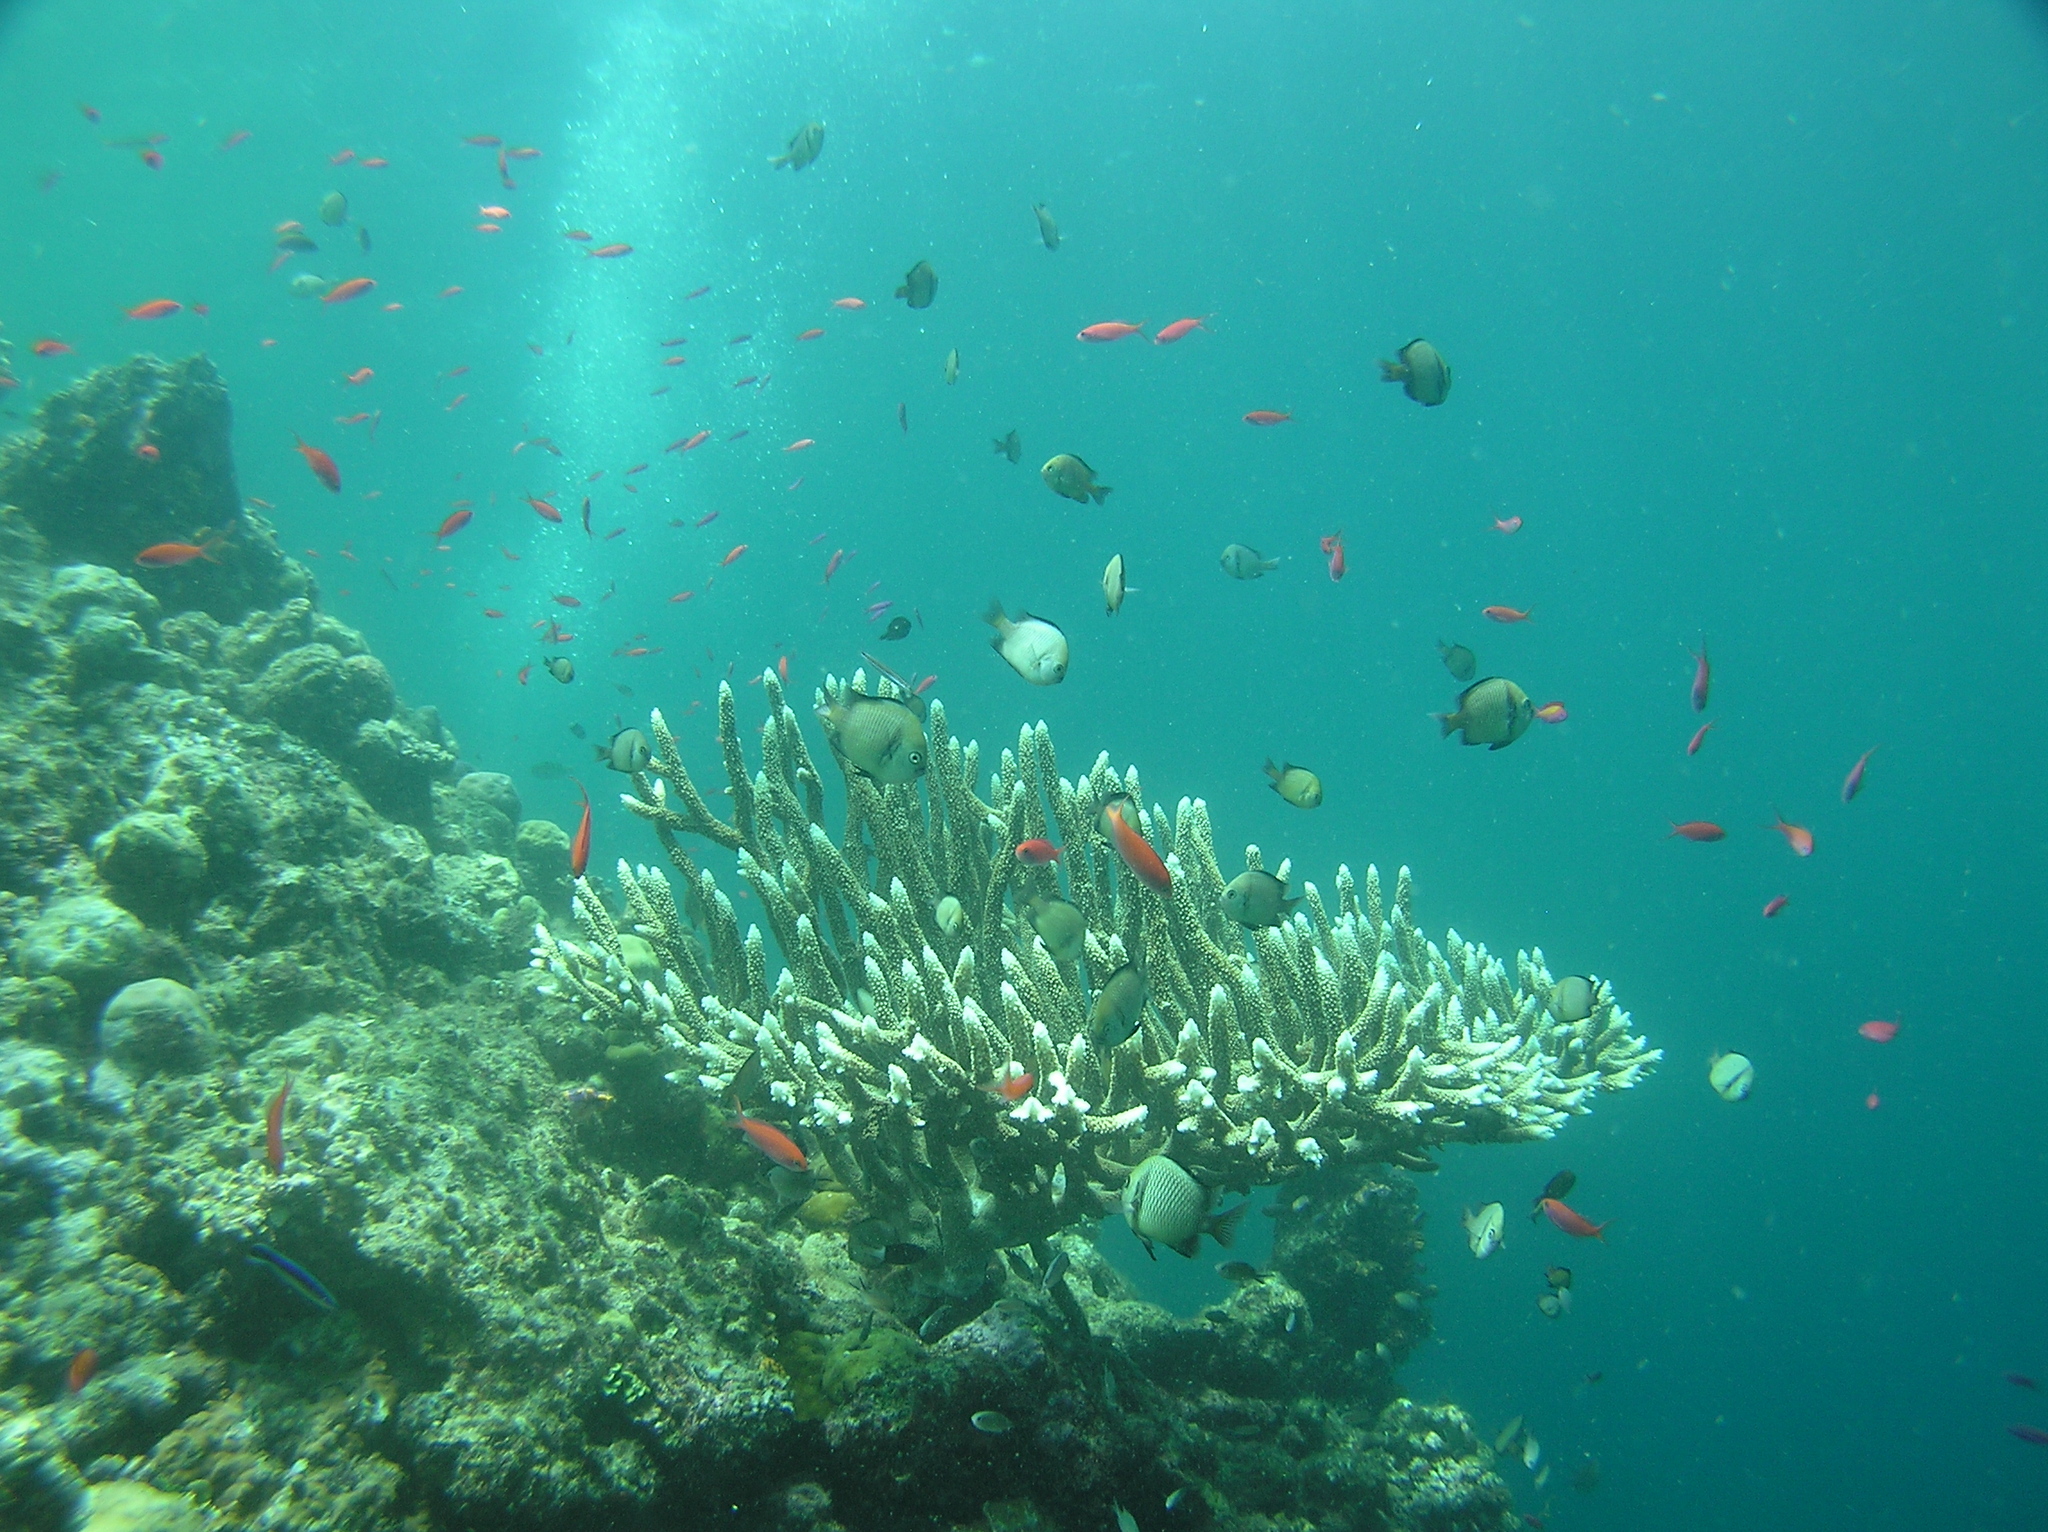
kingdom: Animalia
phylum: Chordata
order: Perciformes
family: Pomacentridae
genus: Dascyllus
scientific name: Dascyllus reticulatus
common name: Reticulated dascyllus
